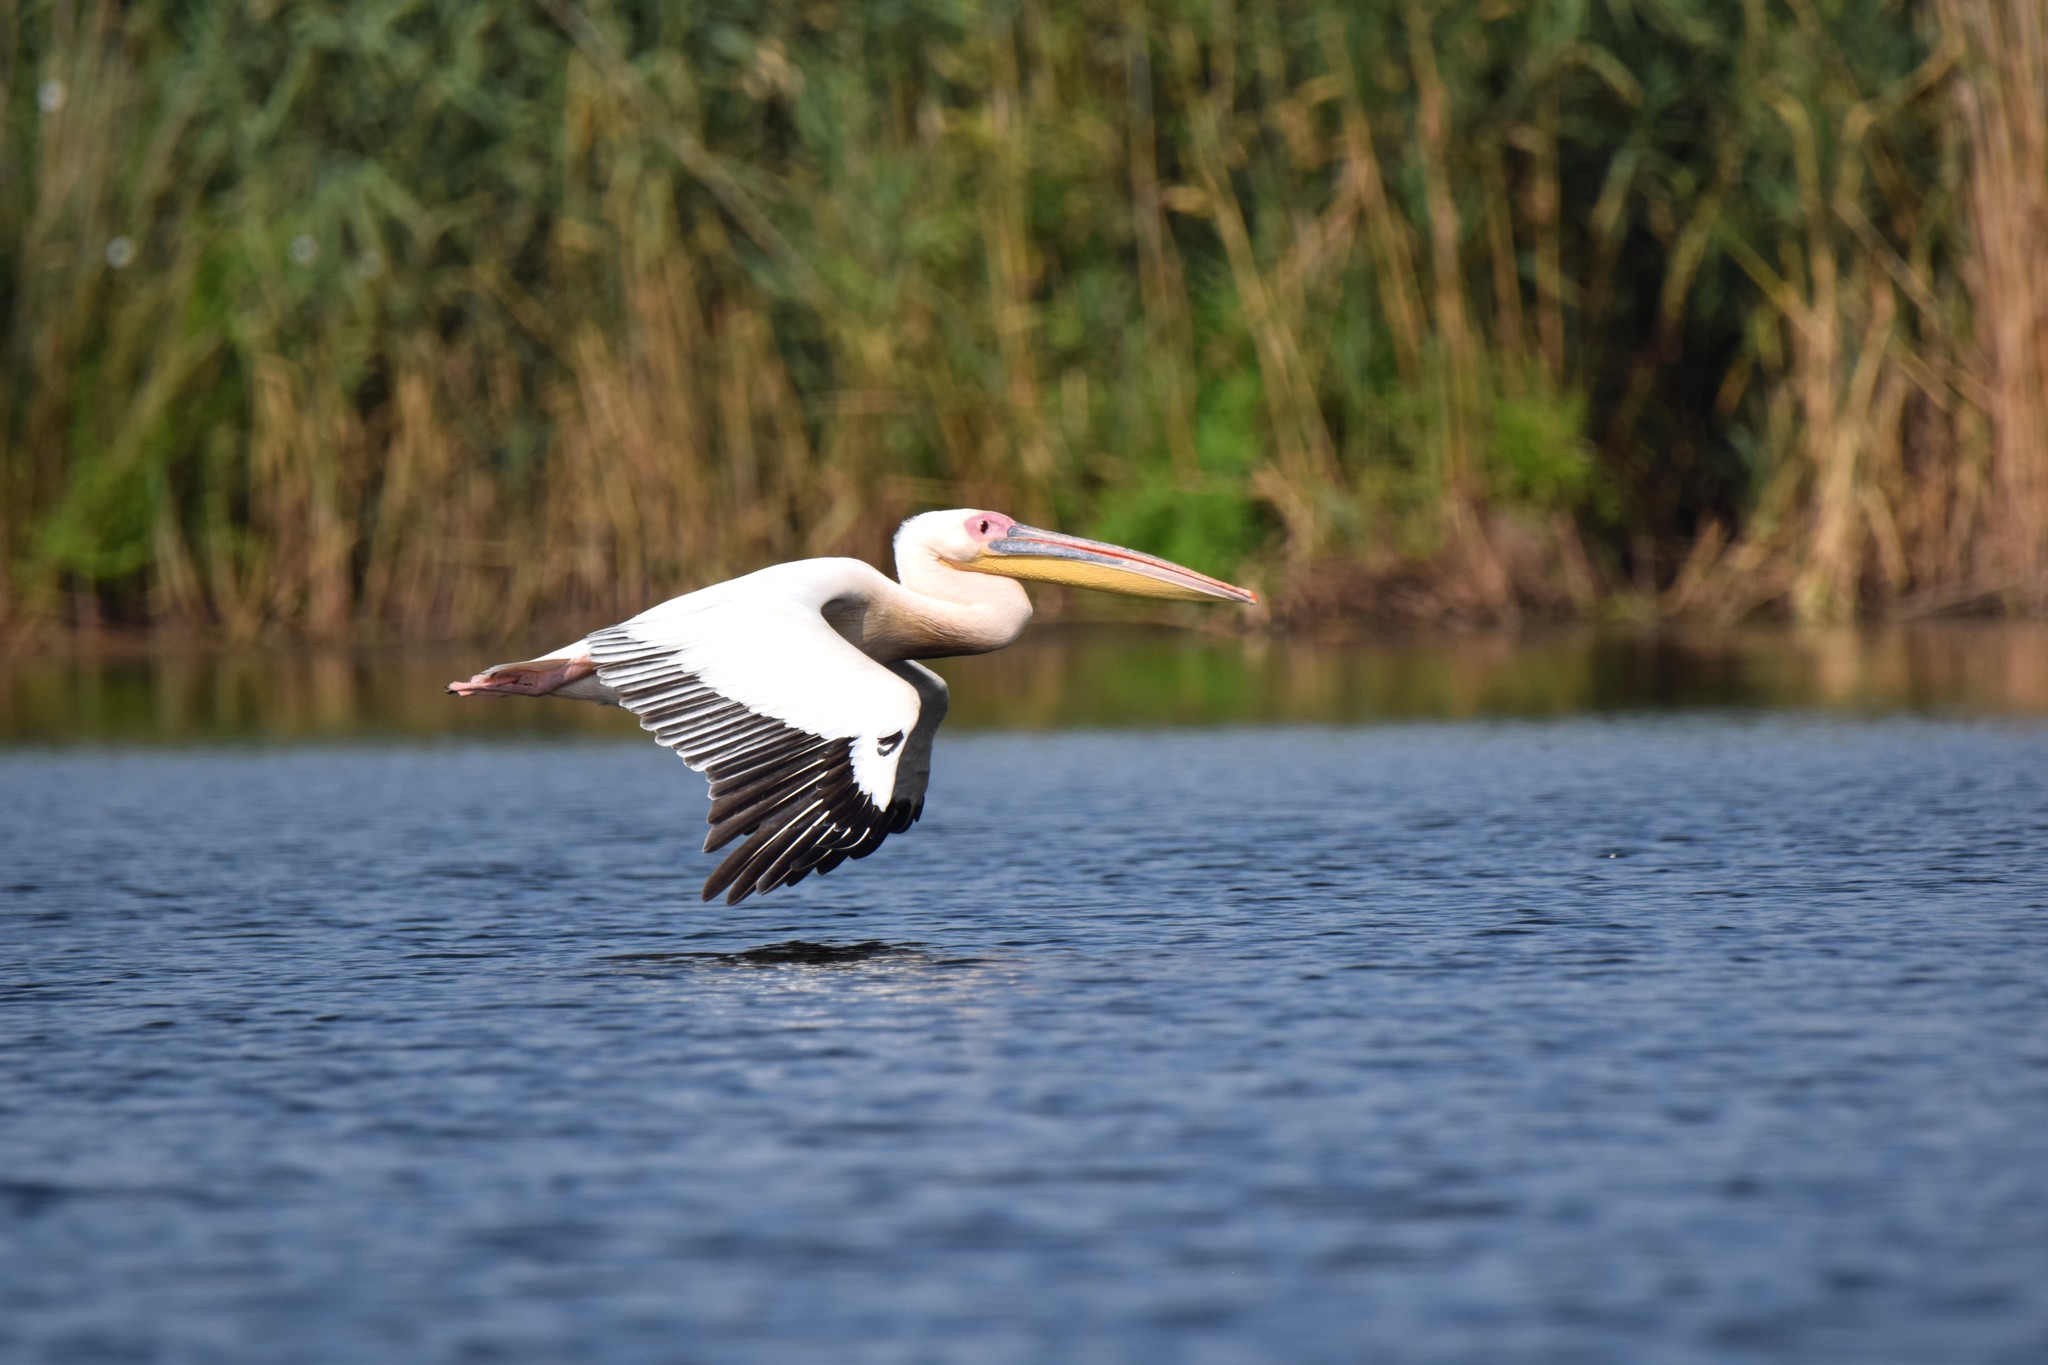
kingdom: Animalia
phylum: Chordata
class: Aves
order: Pelecaniformes
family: Pelecanidae
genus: Pelecanus
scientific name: Pelecanus onocrotalus
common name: Great white pelican
